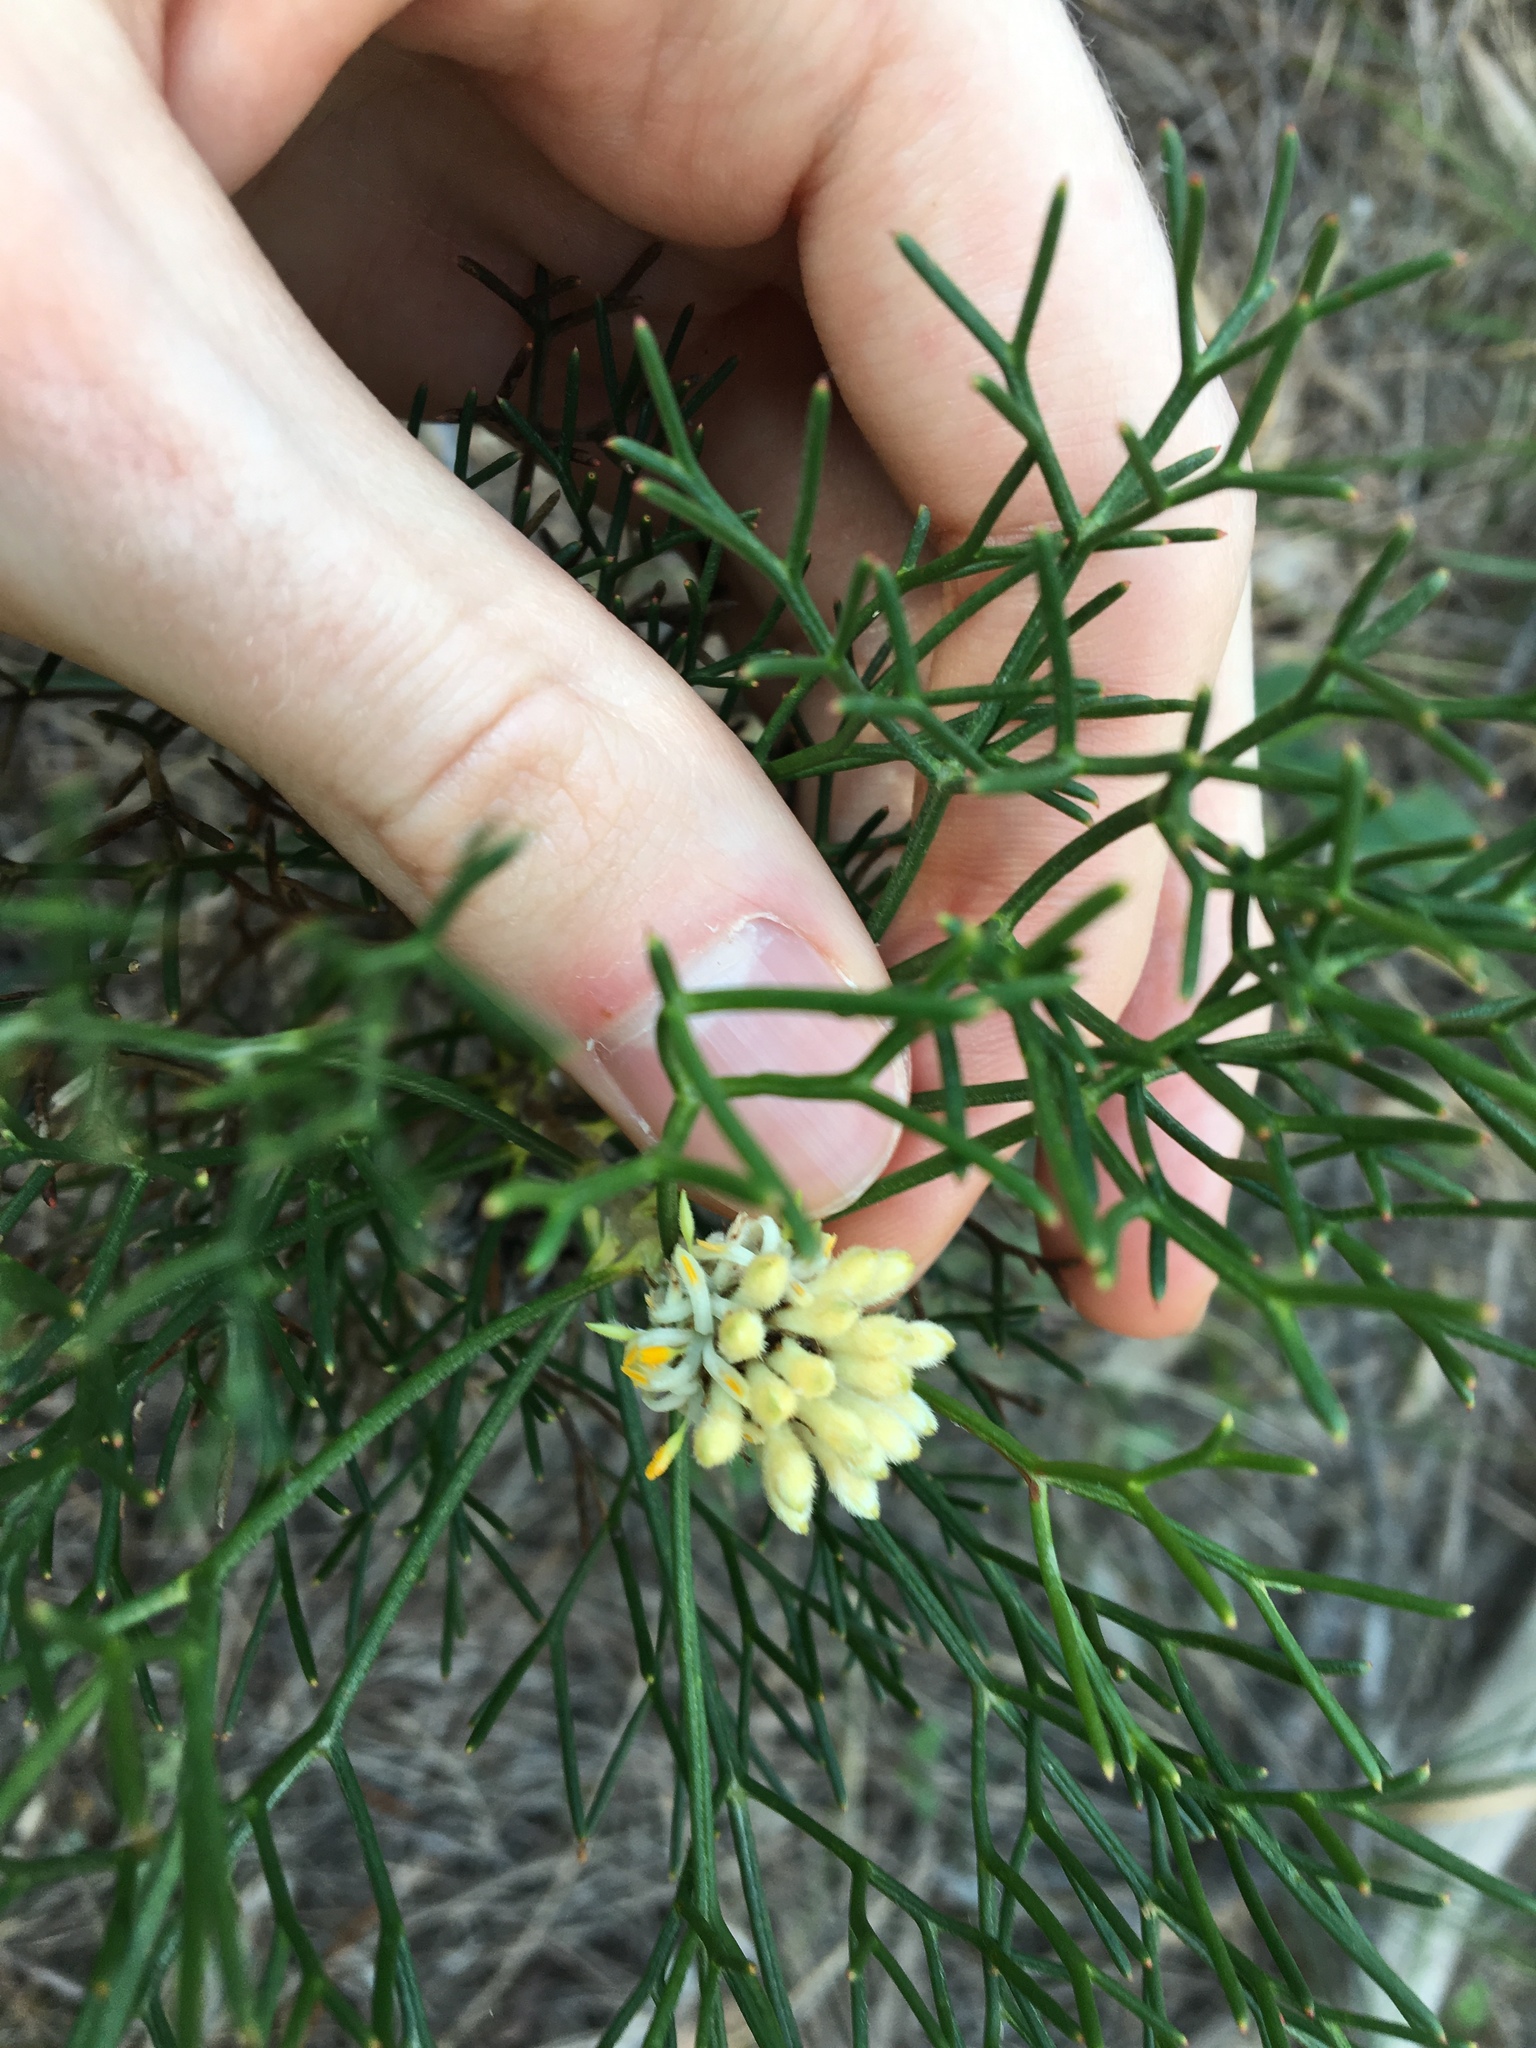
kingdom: Plantae
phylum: Tracheophyta
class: Magnoliopsida
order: Proteales
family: Proteaceae
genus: Petrophile
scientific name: Petrophile pulchella
